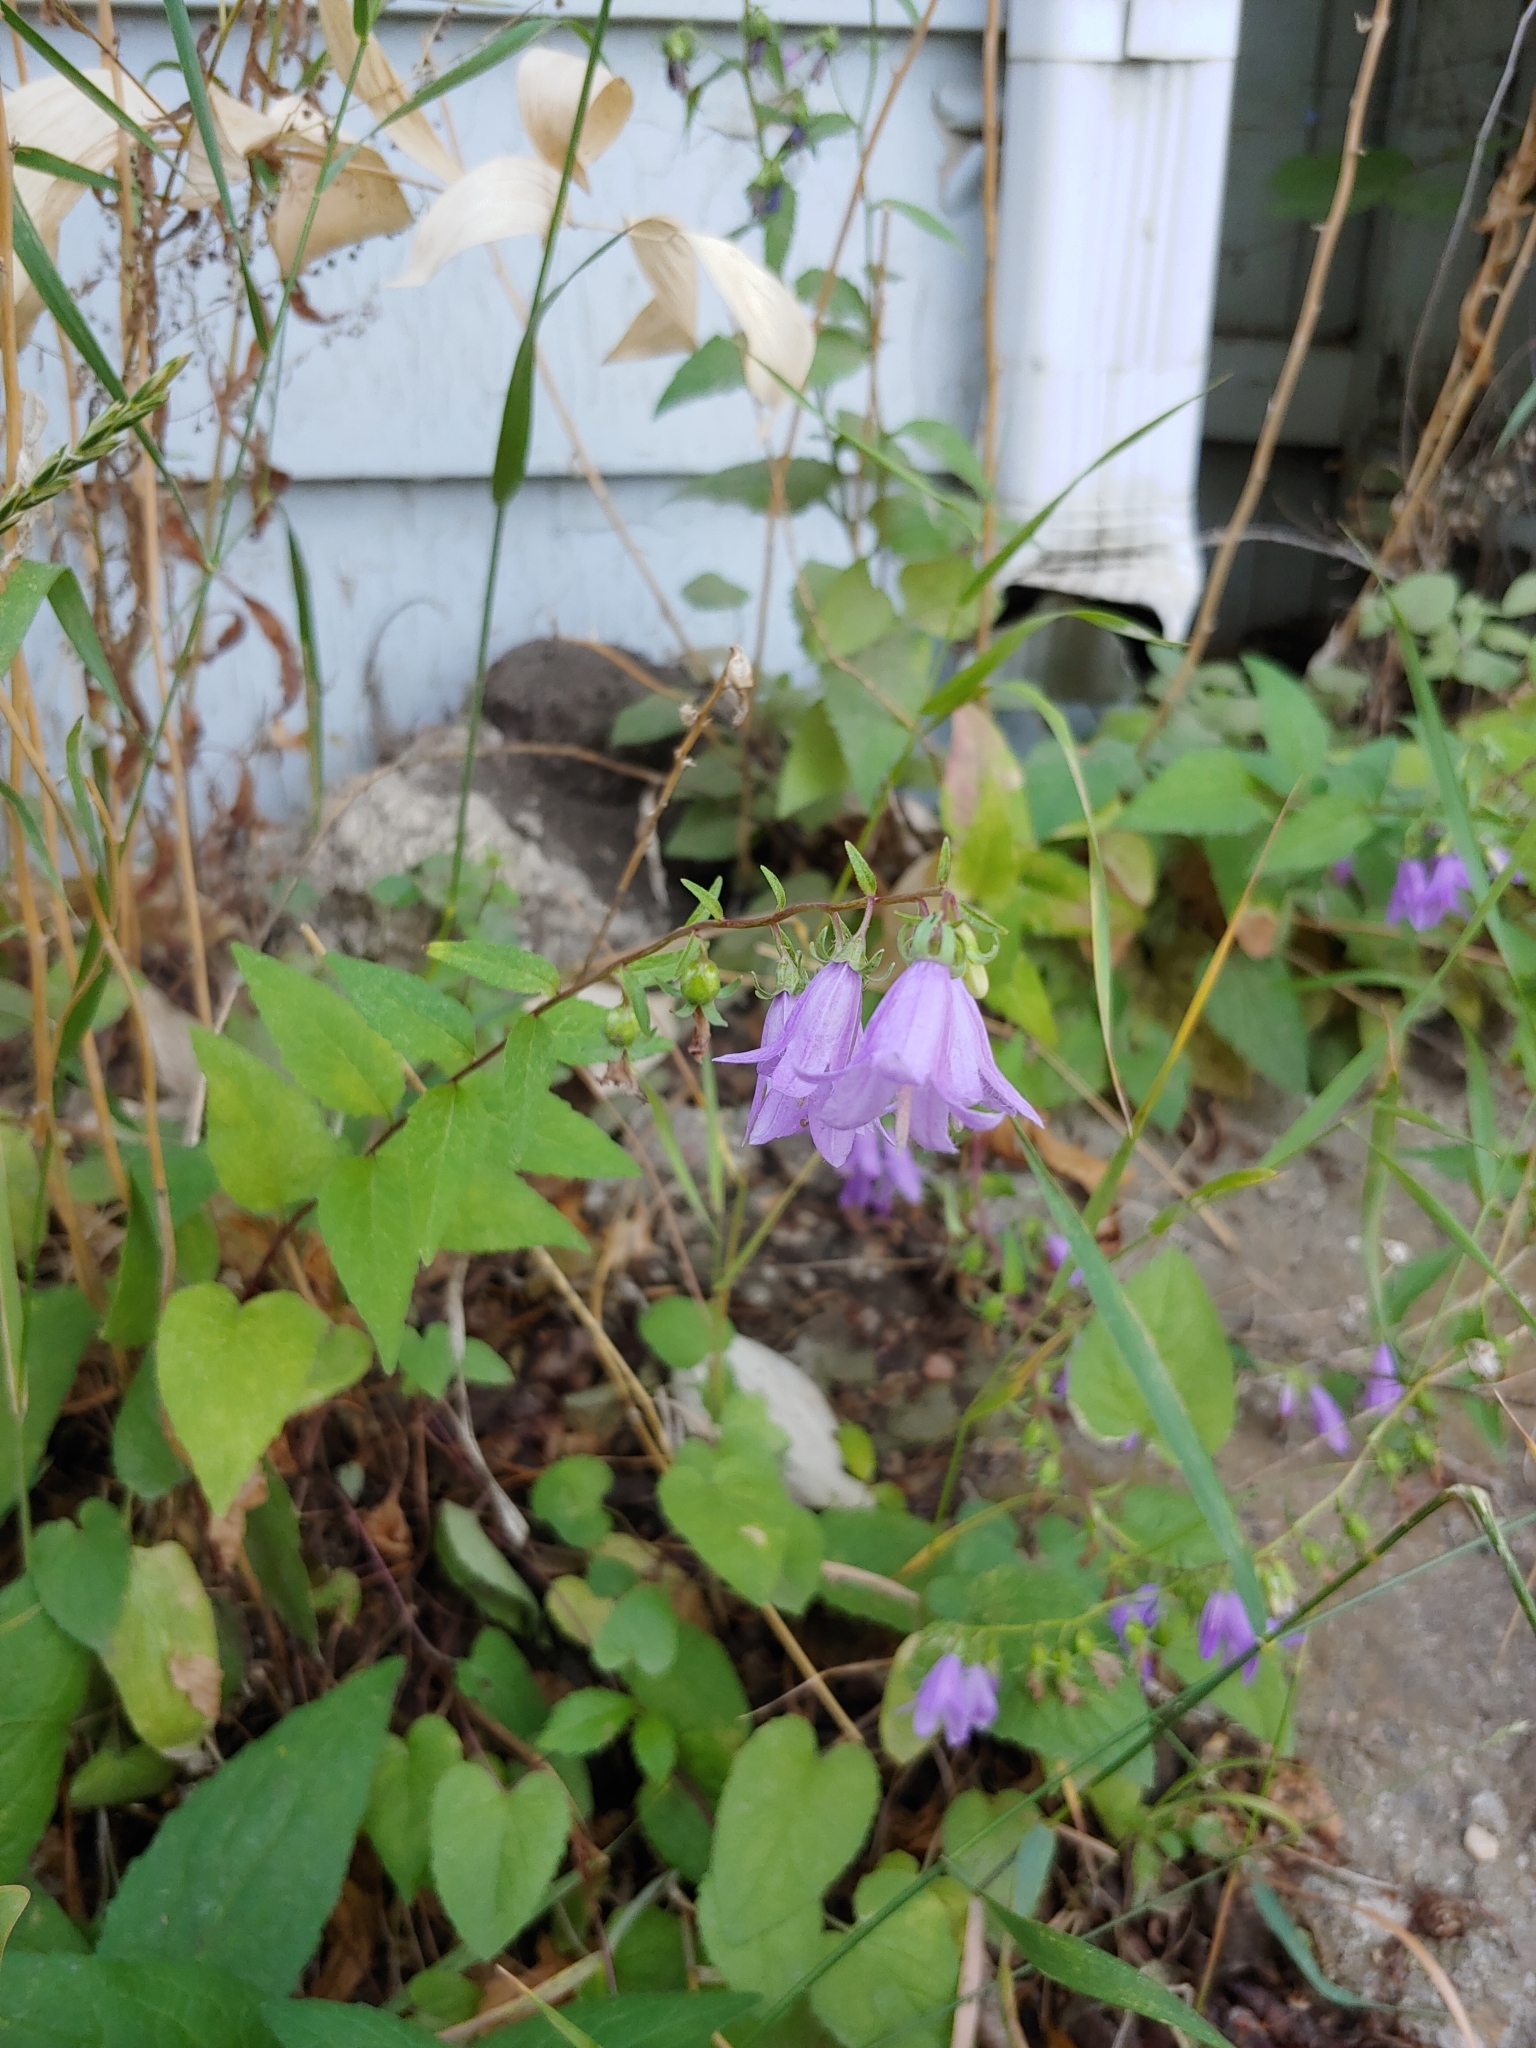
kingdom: Plantae
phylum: Tracheophyta
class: Magnoliopsida
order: Asterales
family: Campanulaceae
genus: Campanula
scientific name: Campanula rapunculoides
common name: Creeping bellflower
